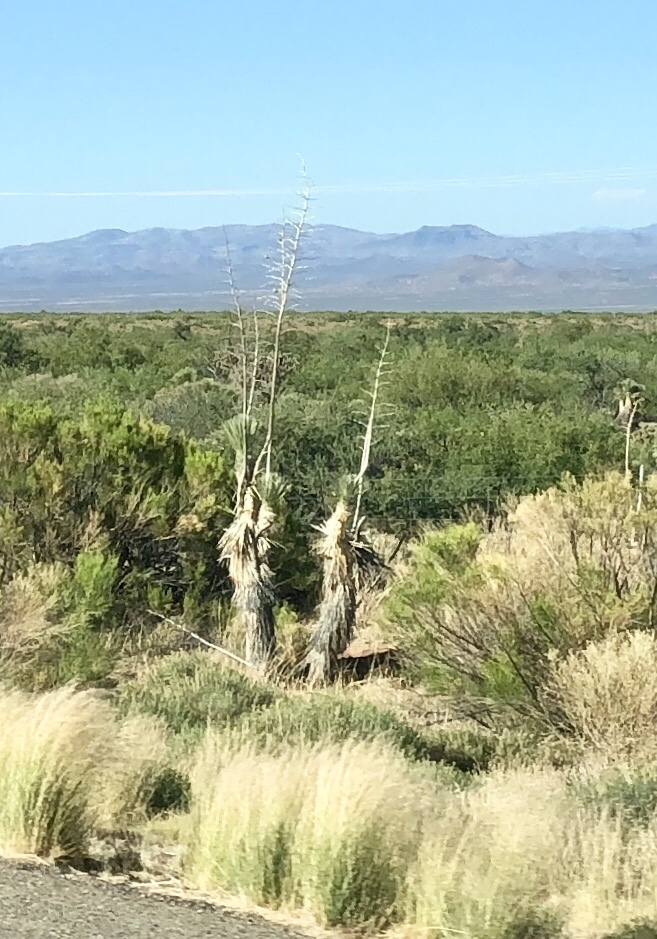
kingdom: Plantae
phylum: Tracheophyta
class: Liliopsida
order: Asparagales
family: Asparagaceae
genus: Yucca
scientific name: Yucca elata
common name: Palmella
